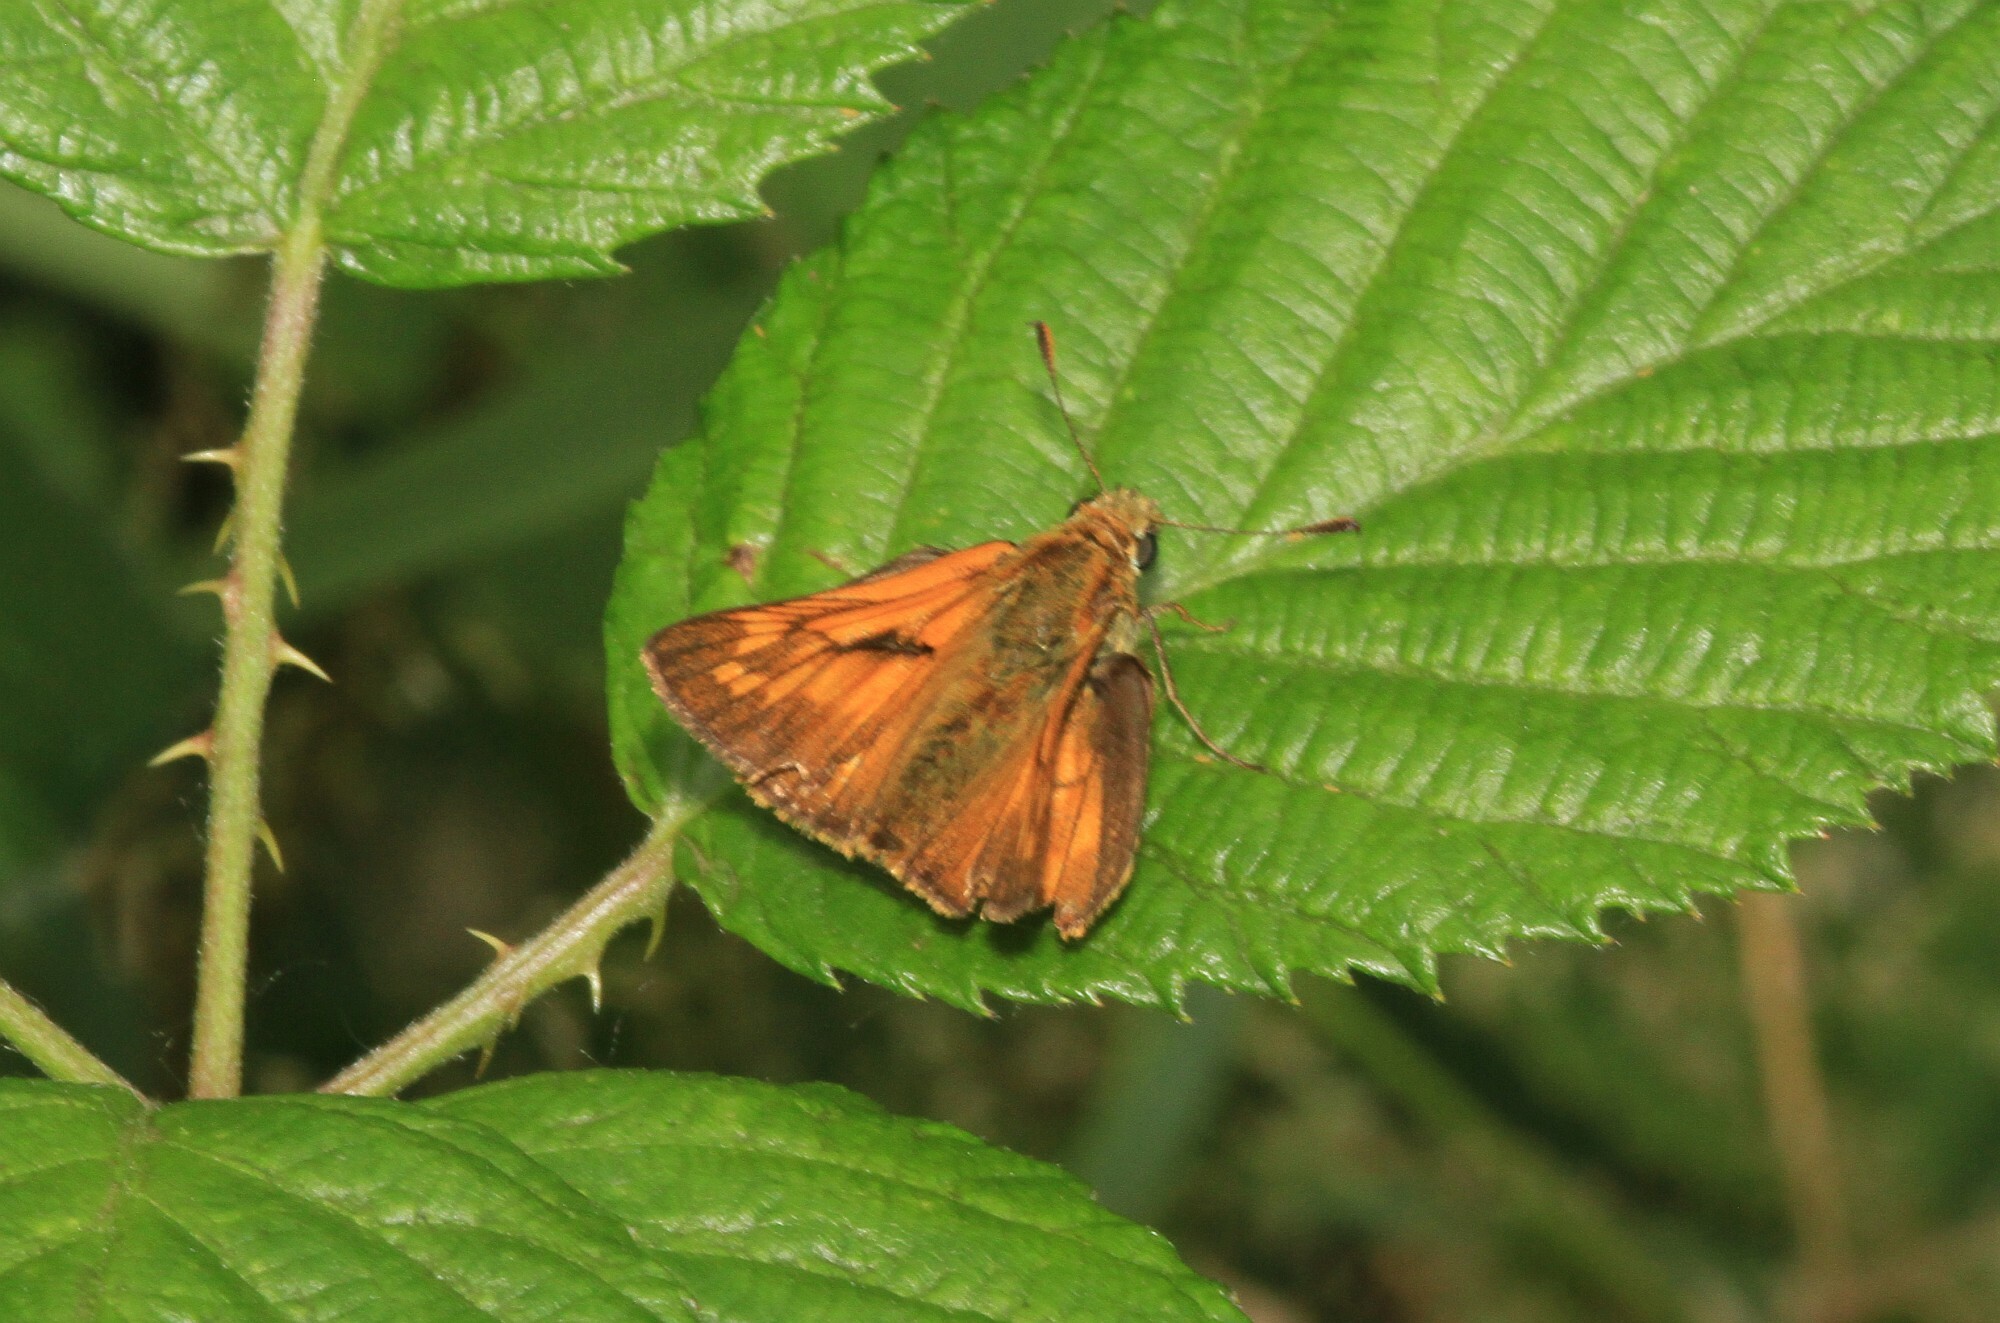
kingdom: Animalia
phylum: Arthropoda
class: Insecta
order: Lepidoptera
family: Hesperiidae
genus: Ochlodes
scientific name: Ochlodes venata
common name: Large skipper
